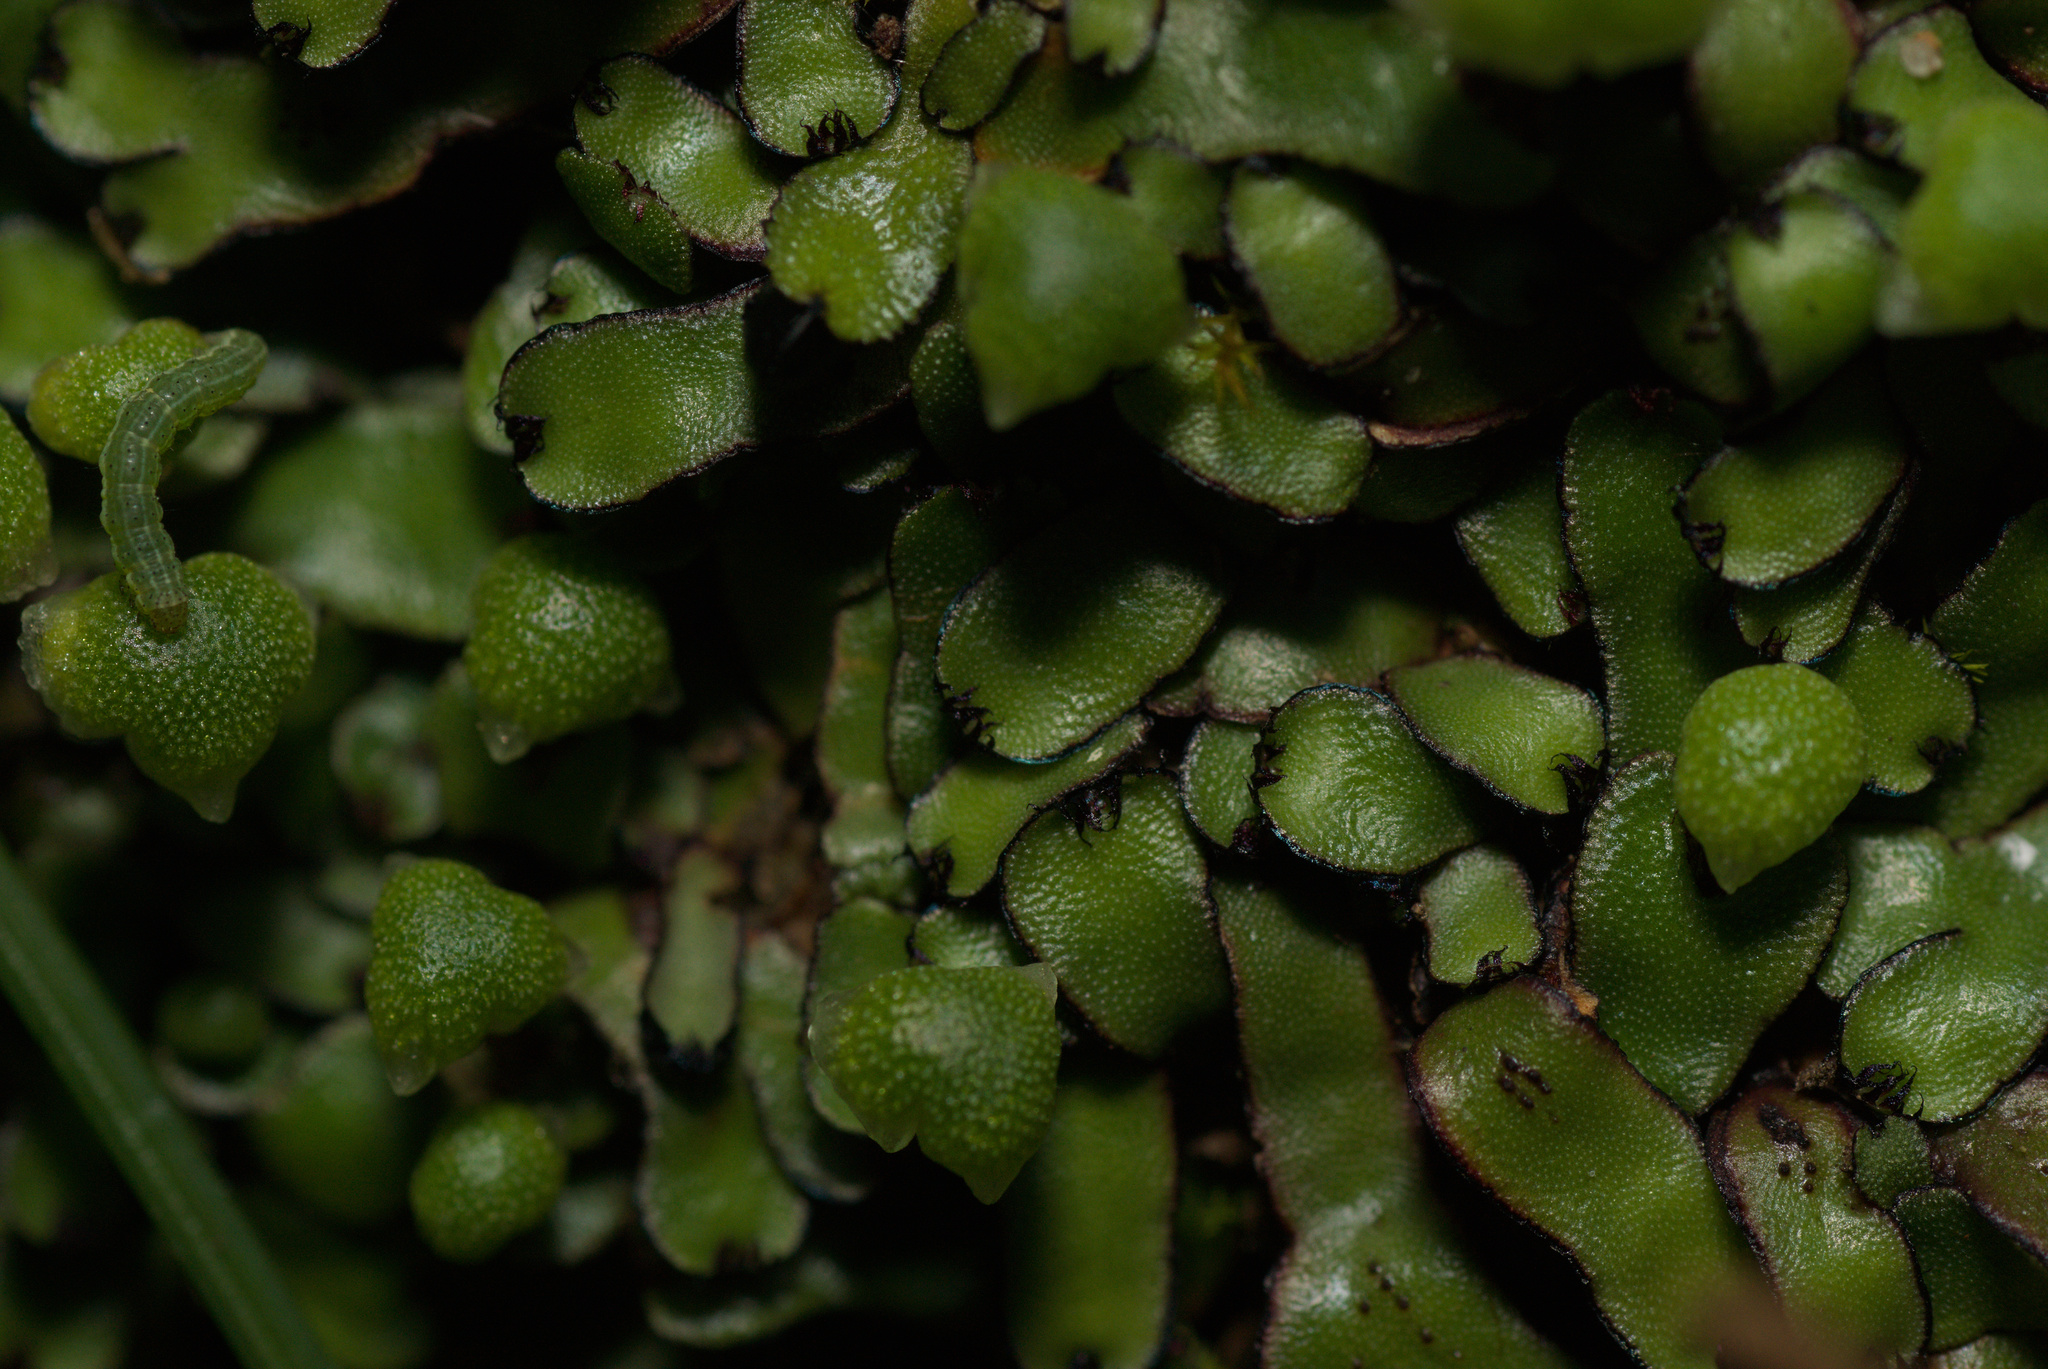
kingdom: Plantae
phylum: Marchantiophyta
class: Marchantiopsida
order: Marchantiales
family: Aytoniaceae
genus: Mannia
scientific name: Mannia androgyna
